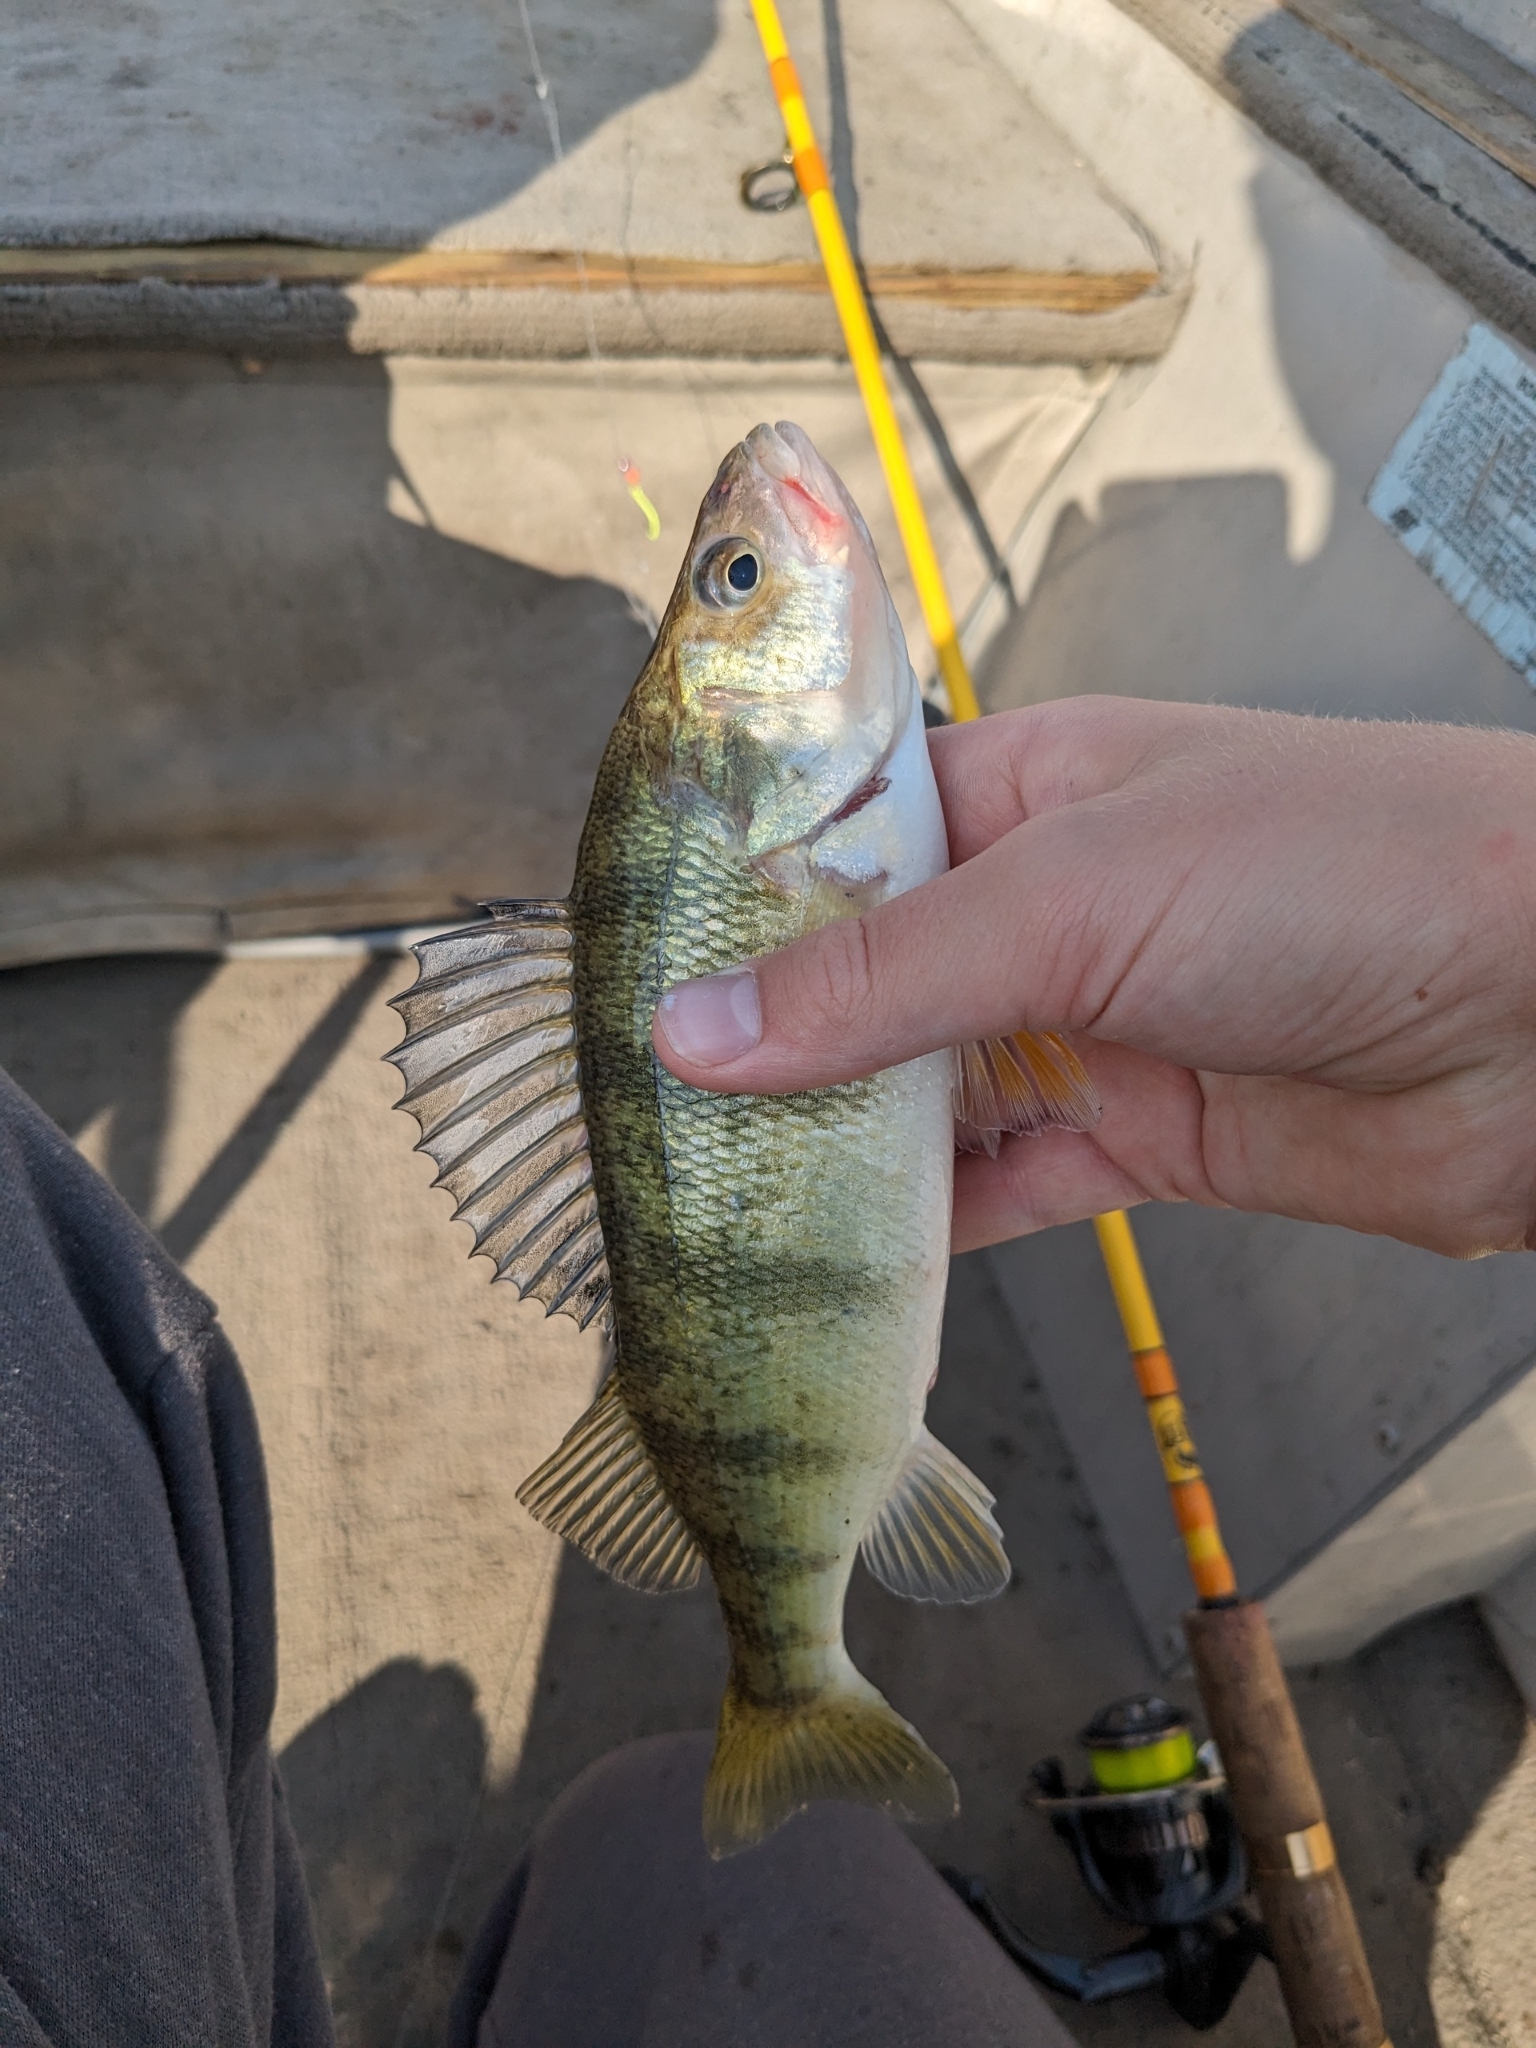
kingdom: Animalia
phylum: Chordata
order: Perciformes
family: Percidae
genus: Perca
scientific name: Perca flavescens
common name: Yellow perch
